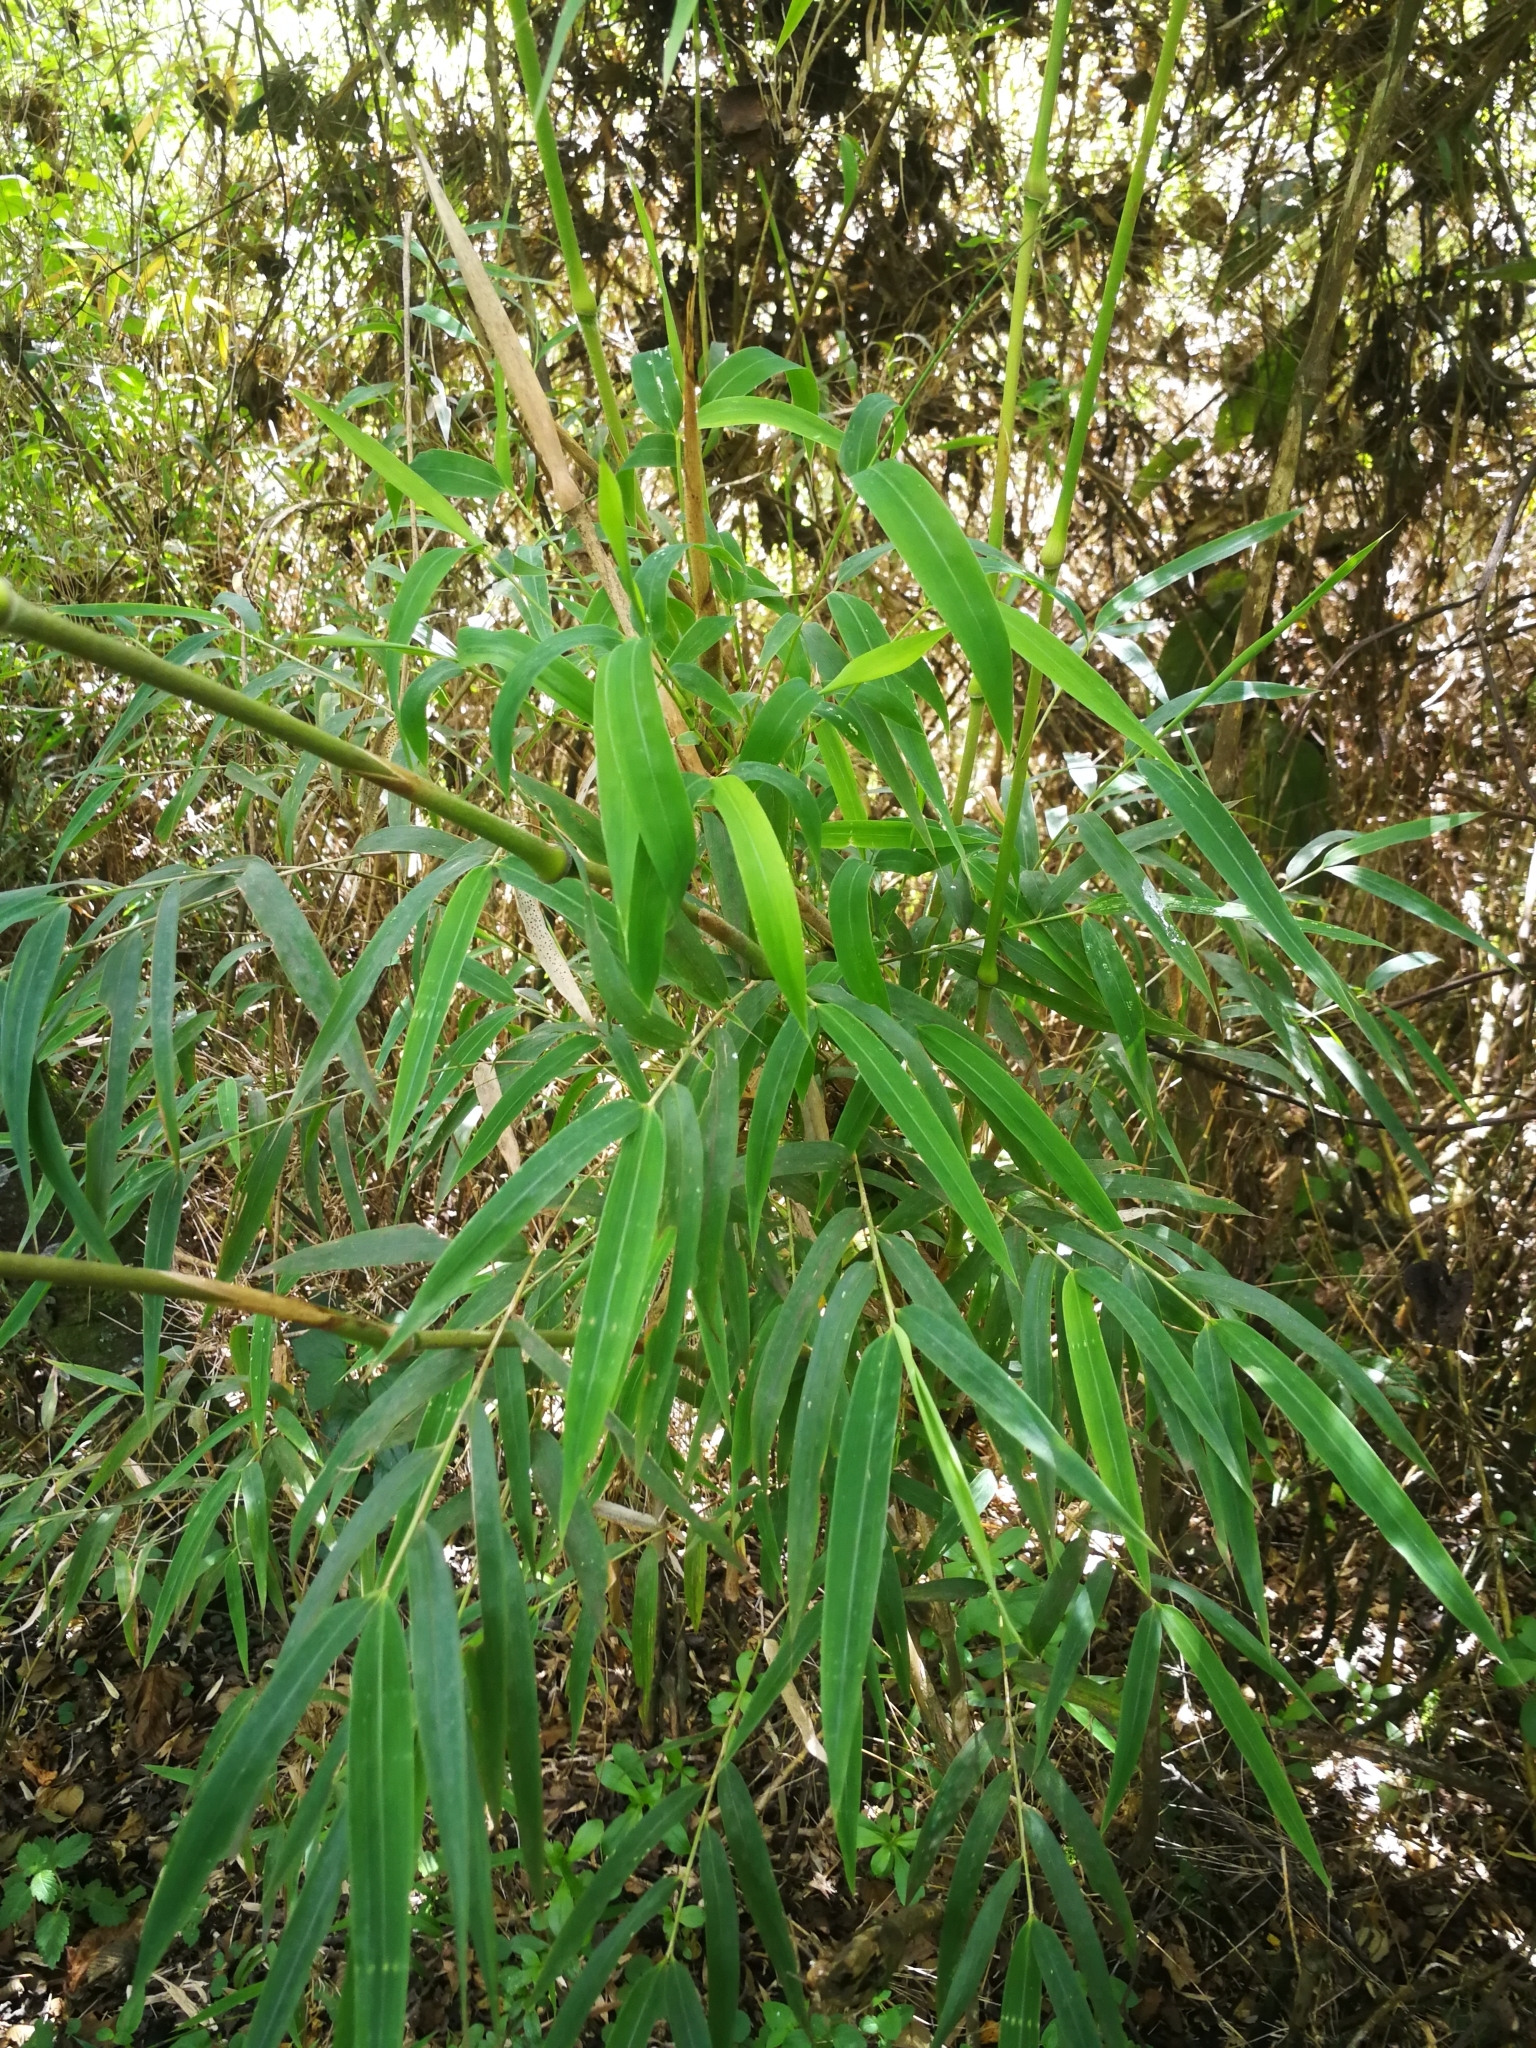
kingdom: Plantae
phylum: Tracheophyta
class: Liliopsida
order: Poales
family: Poaceae
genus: Chusquea
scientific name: Chusquea scandens
